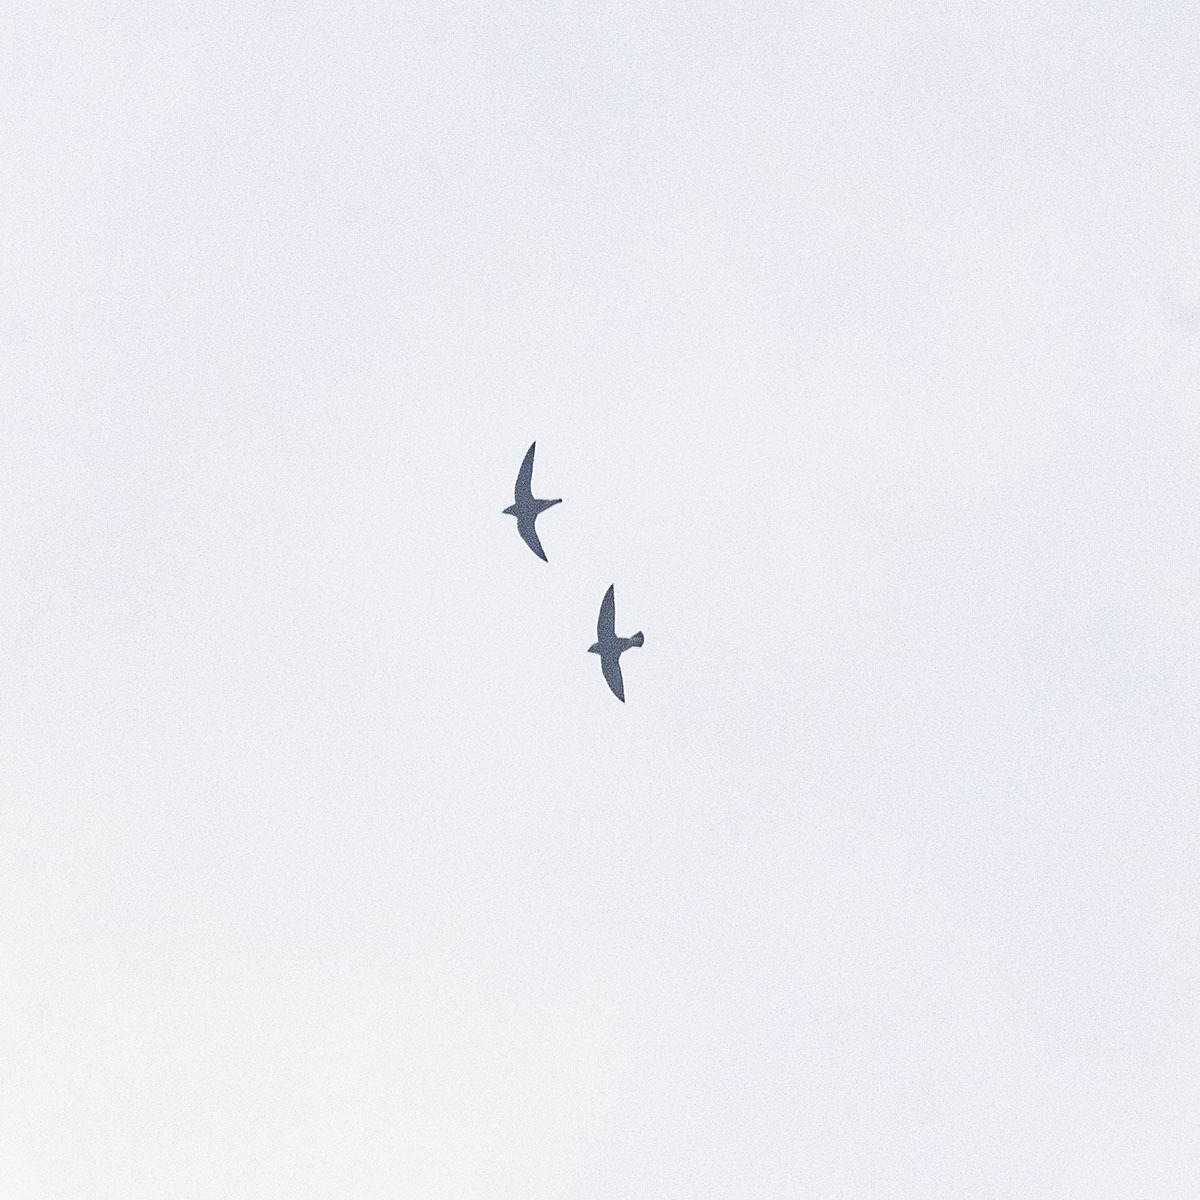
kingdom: Animalia
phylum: Chordata
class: Aves
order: Apodiformes
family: Apodidae
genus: Hirundapus
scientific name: Hirundapus giganteus
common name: Brown-backed needletail
